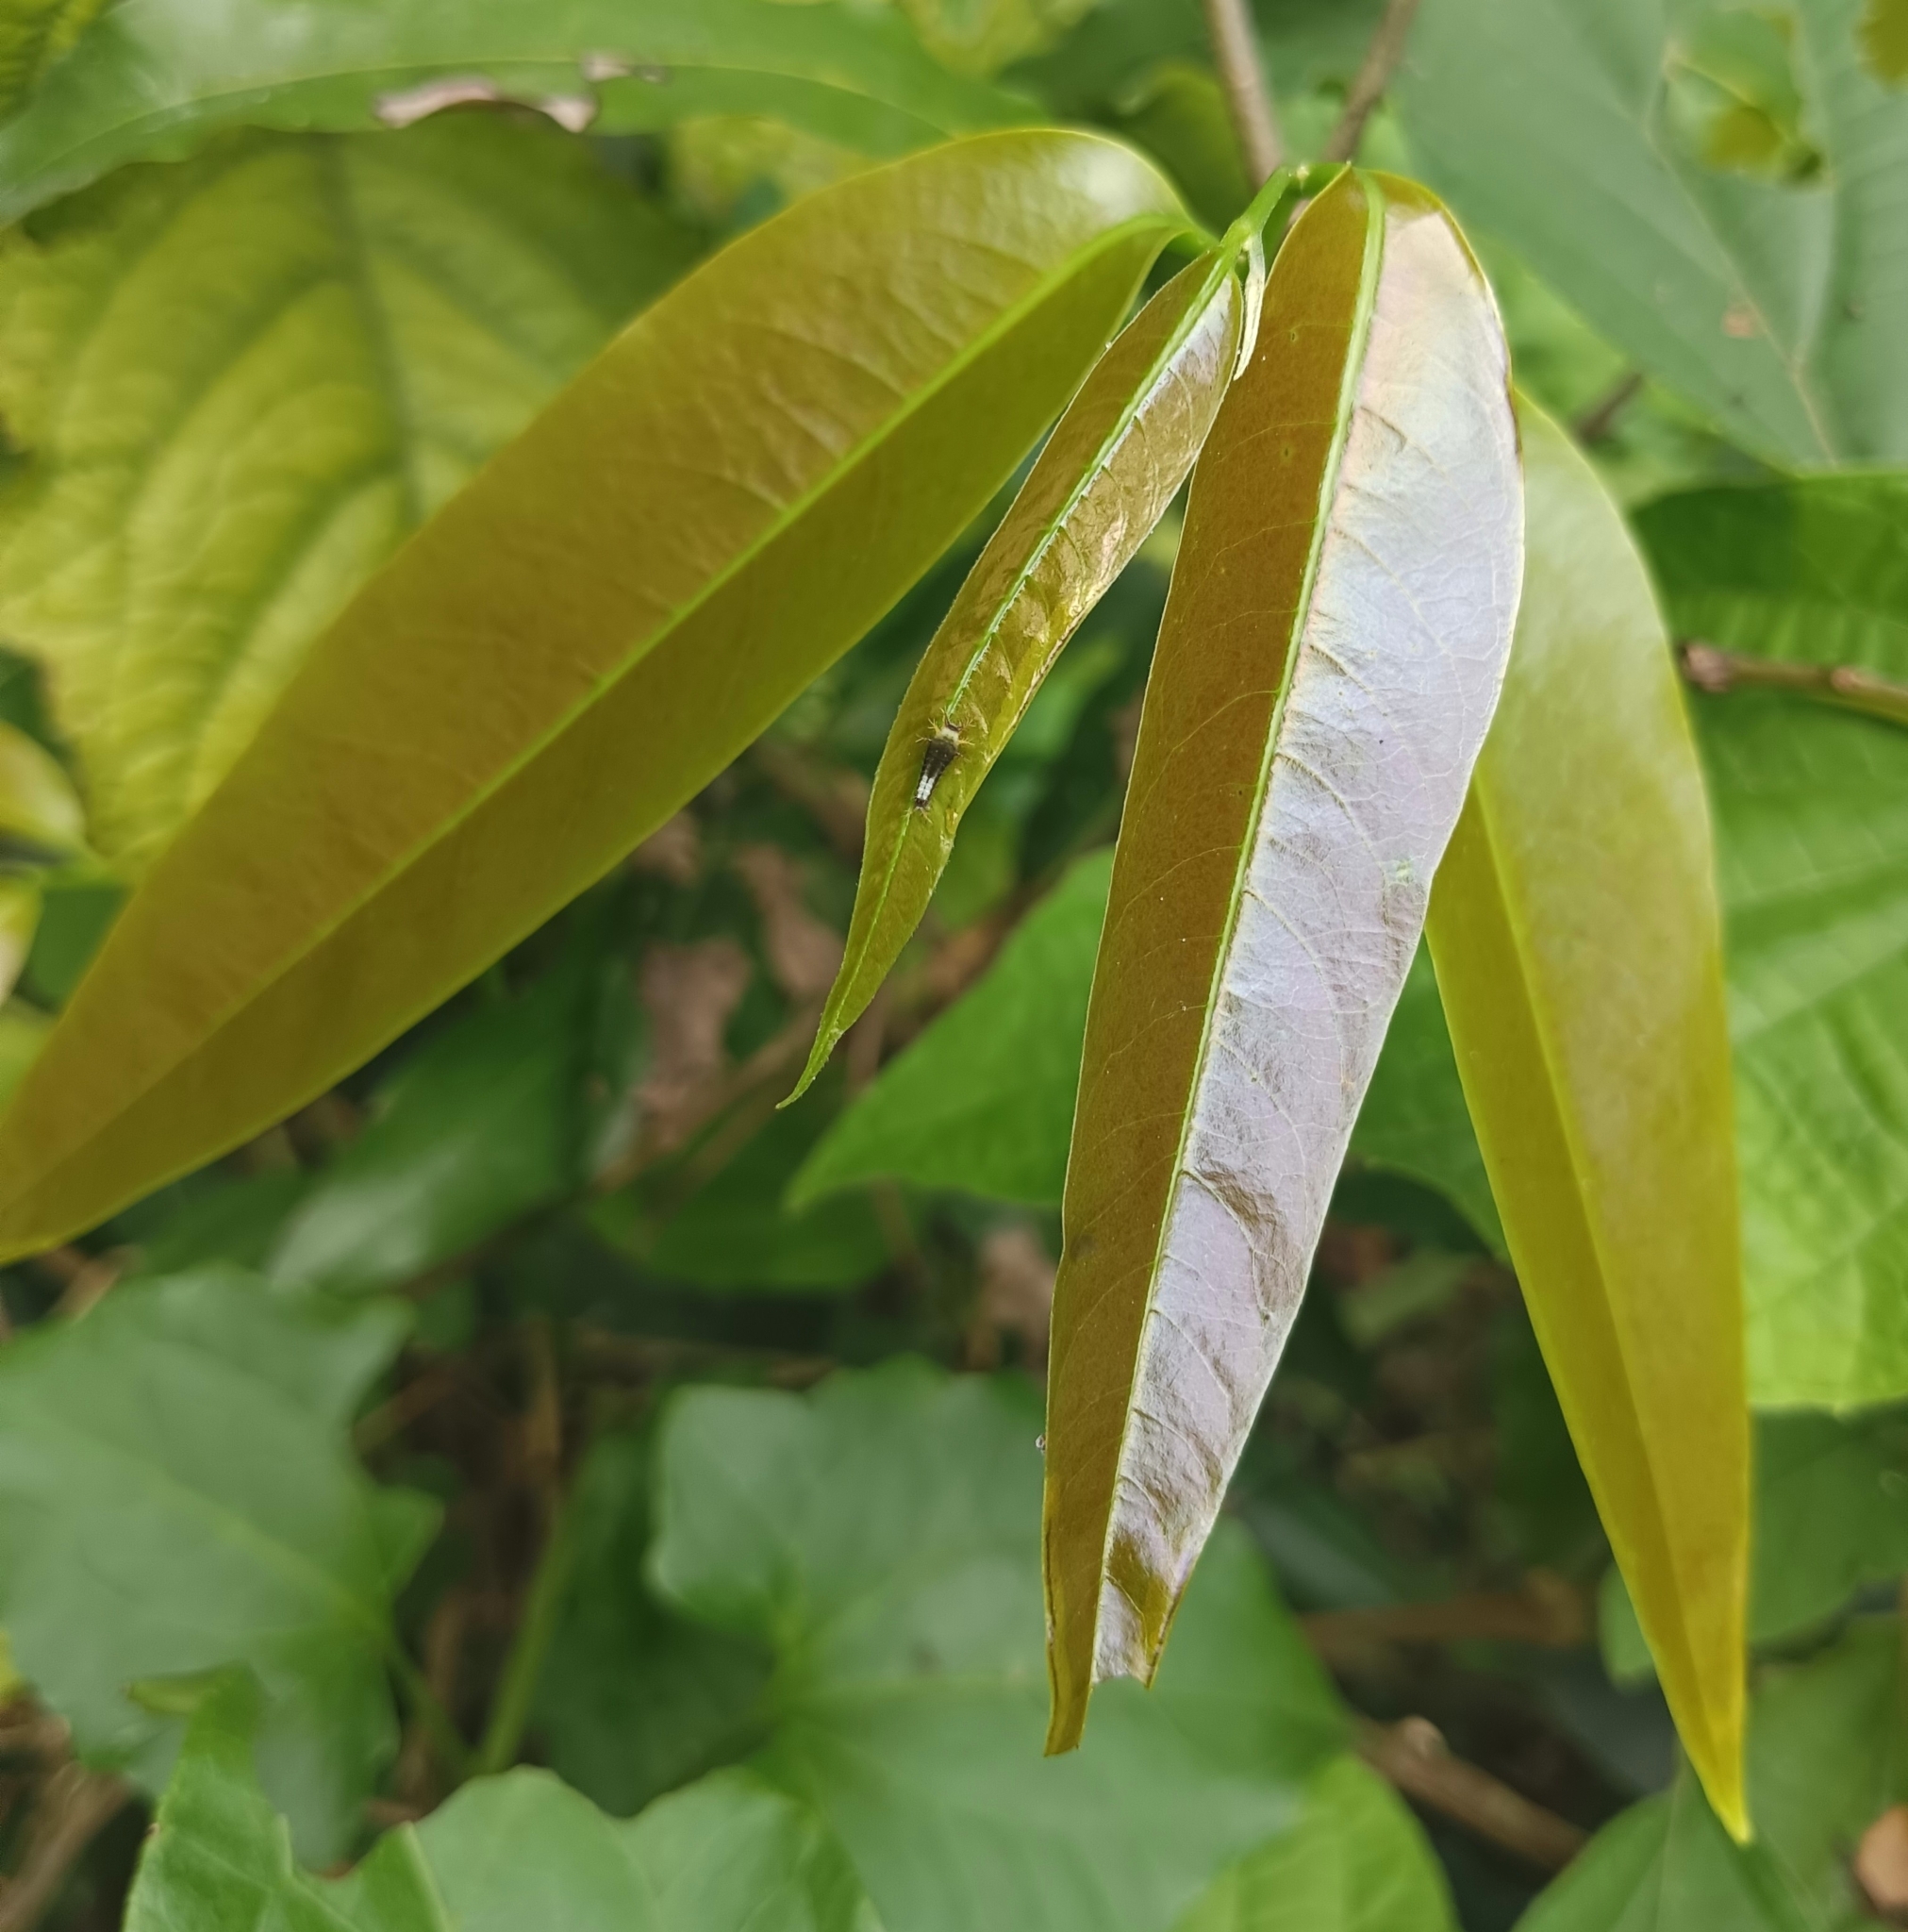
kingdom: Animalia
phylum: Arthropoda
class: Insecta
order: Lepidoptera
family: Papilionidae
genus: Graphium
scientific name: Graphium agamemnon
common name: Tailed jay
